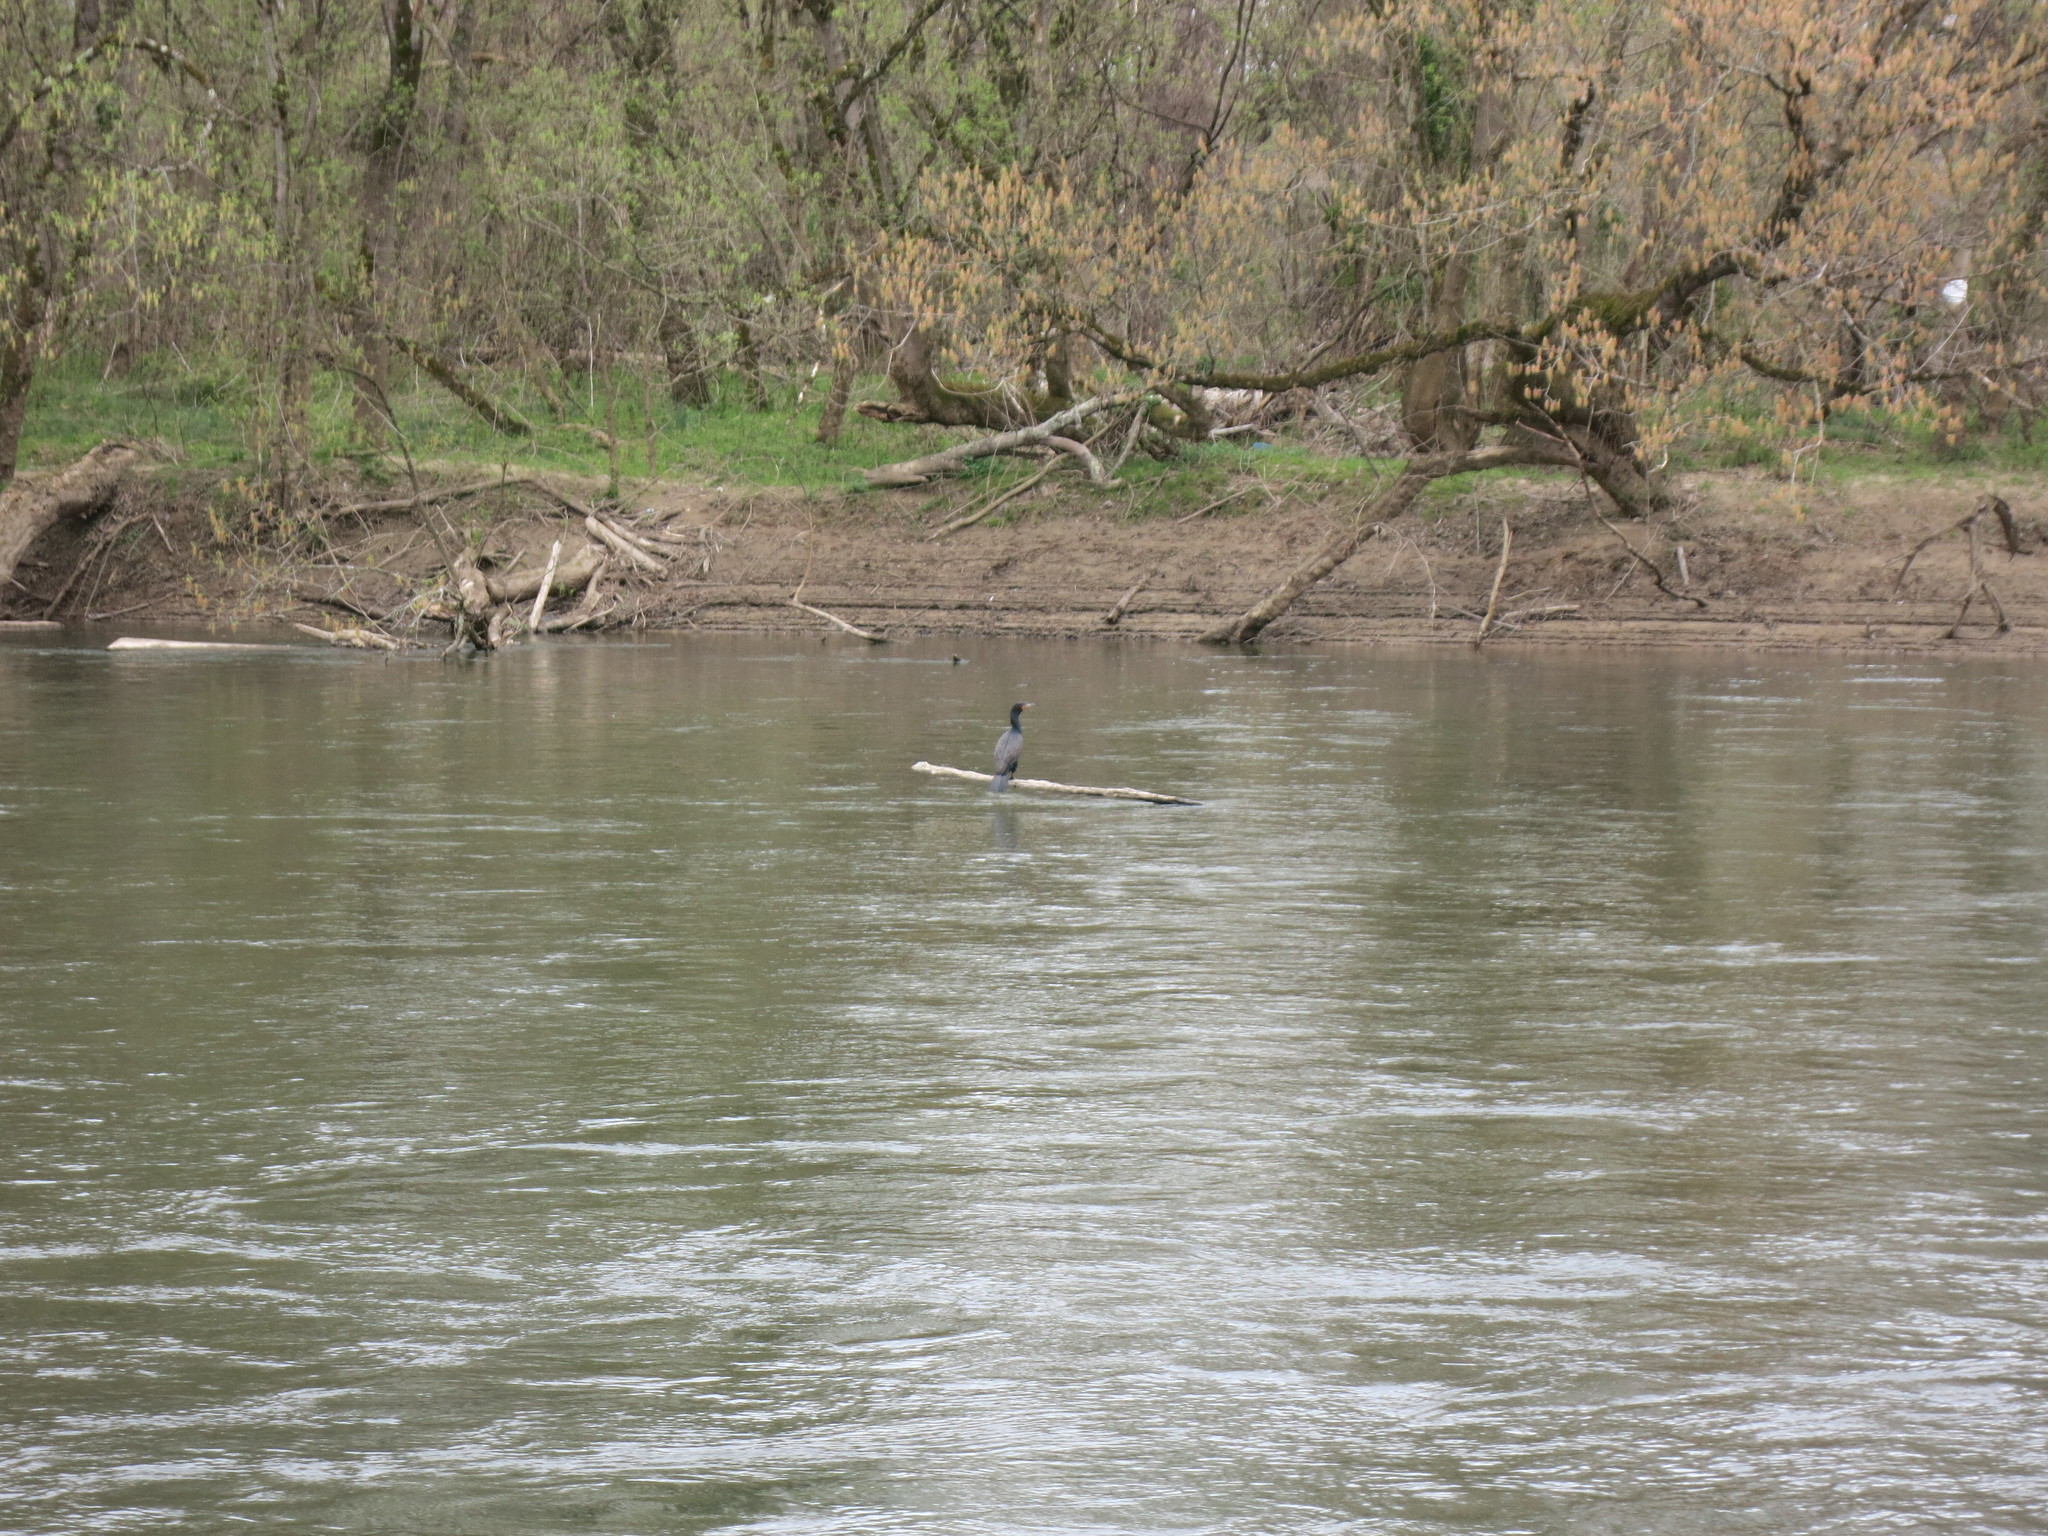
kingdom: Animalia
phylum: Chordata
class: Aves
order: Suliformes
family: Phalacrocoracidae
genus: Phalacrocorax
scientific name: Phalacrocorax auritus
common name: Double-crested cormorant
